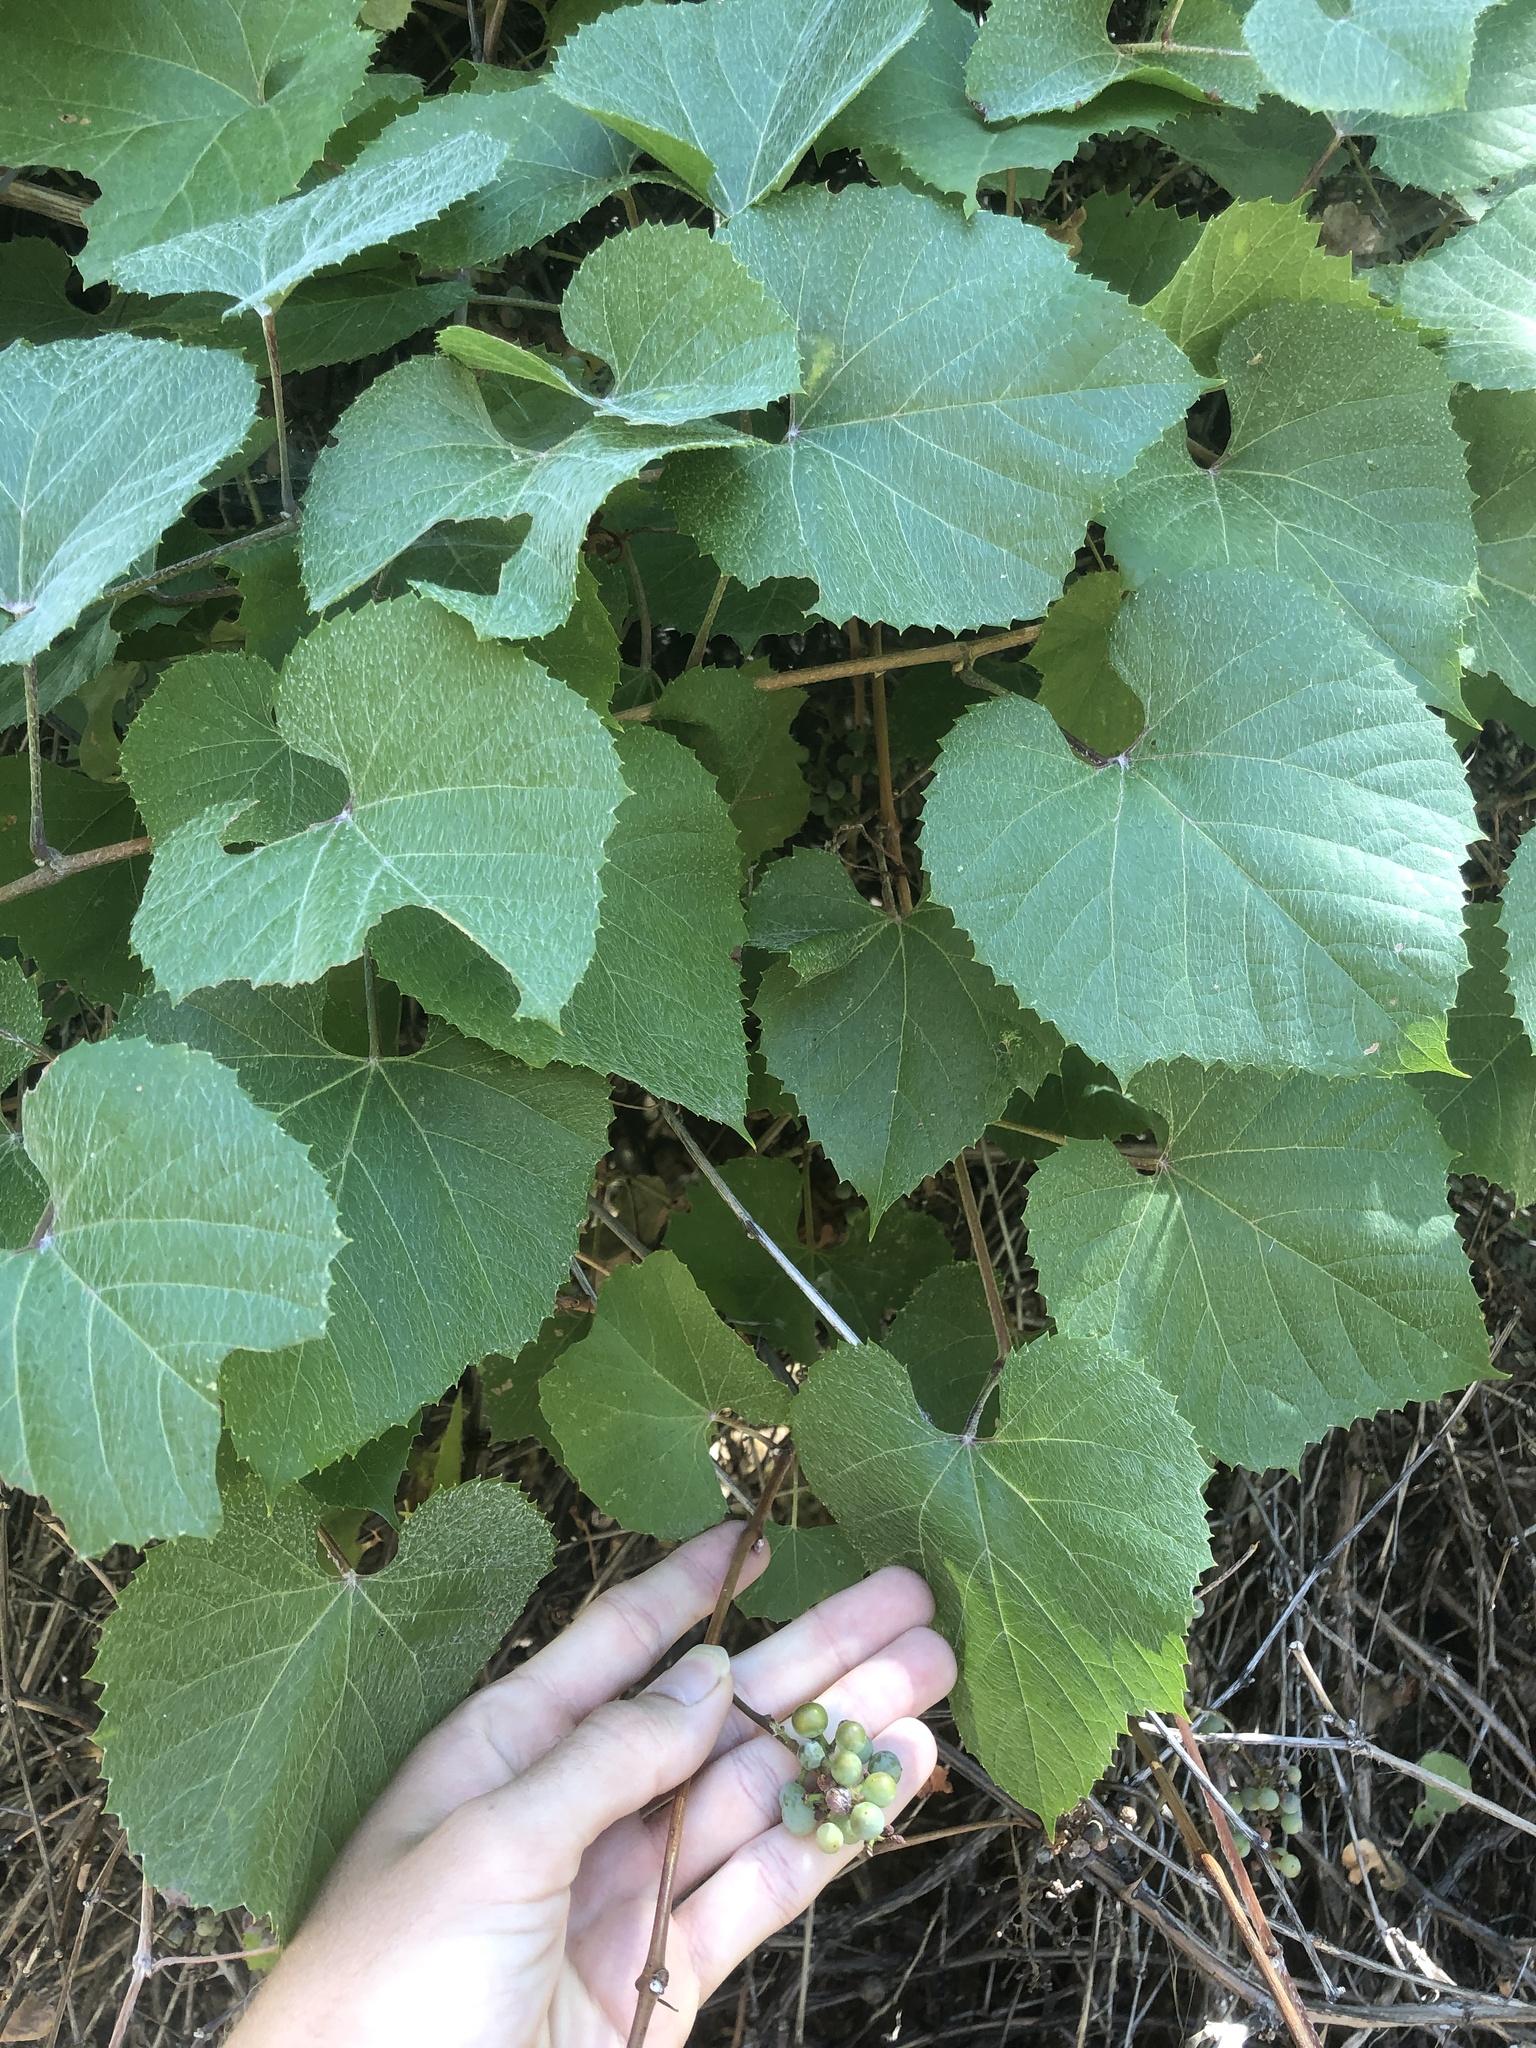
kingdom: Plantae
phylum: Tracheophyta
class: Magnoliopsida
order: Vitales
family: Vitaceae
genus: Vitis
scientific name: Vitis arizonica
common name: Canyon grape
